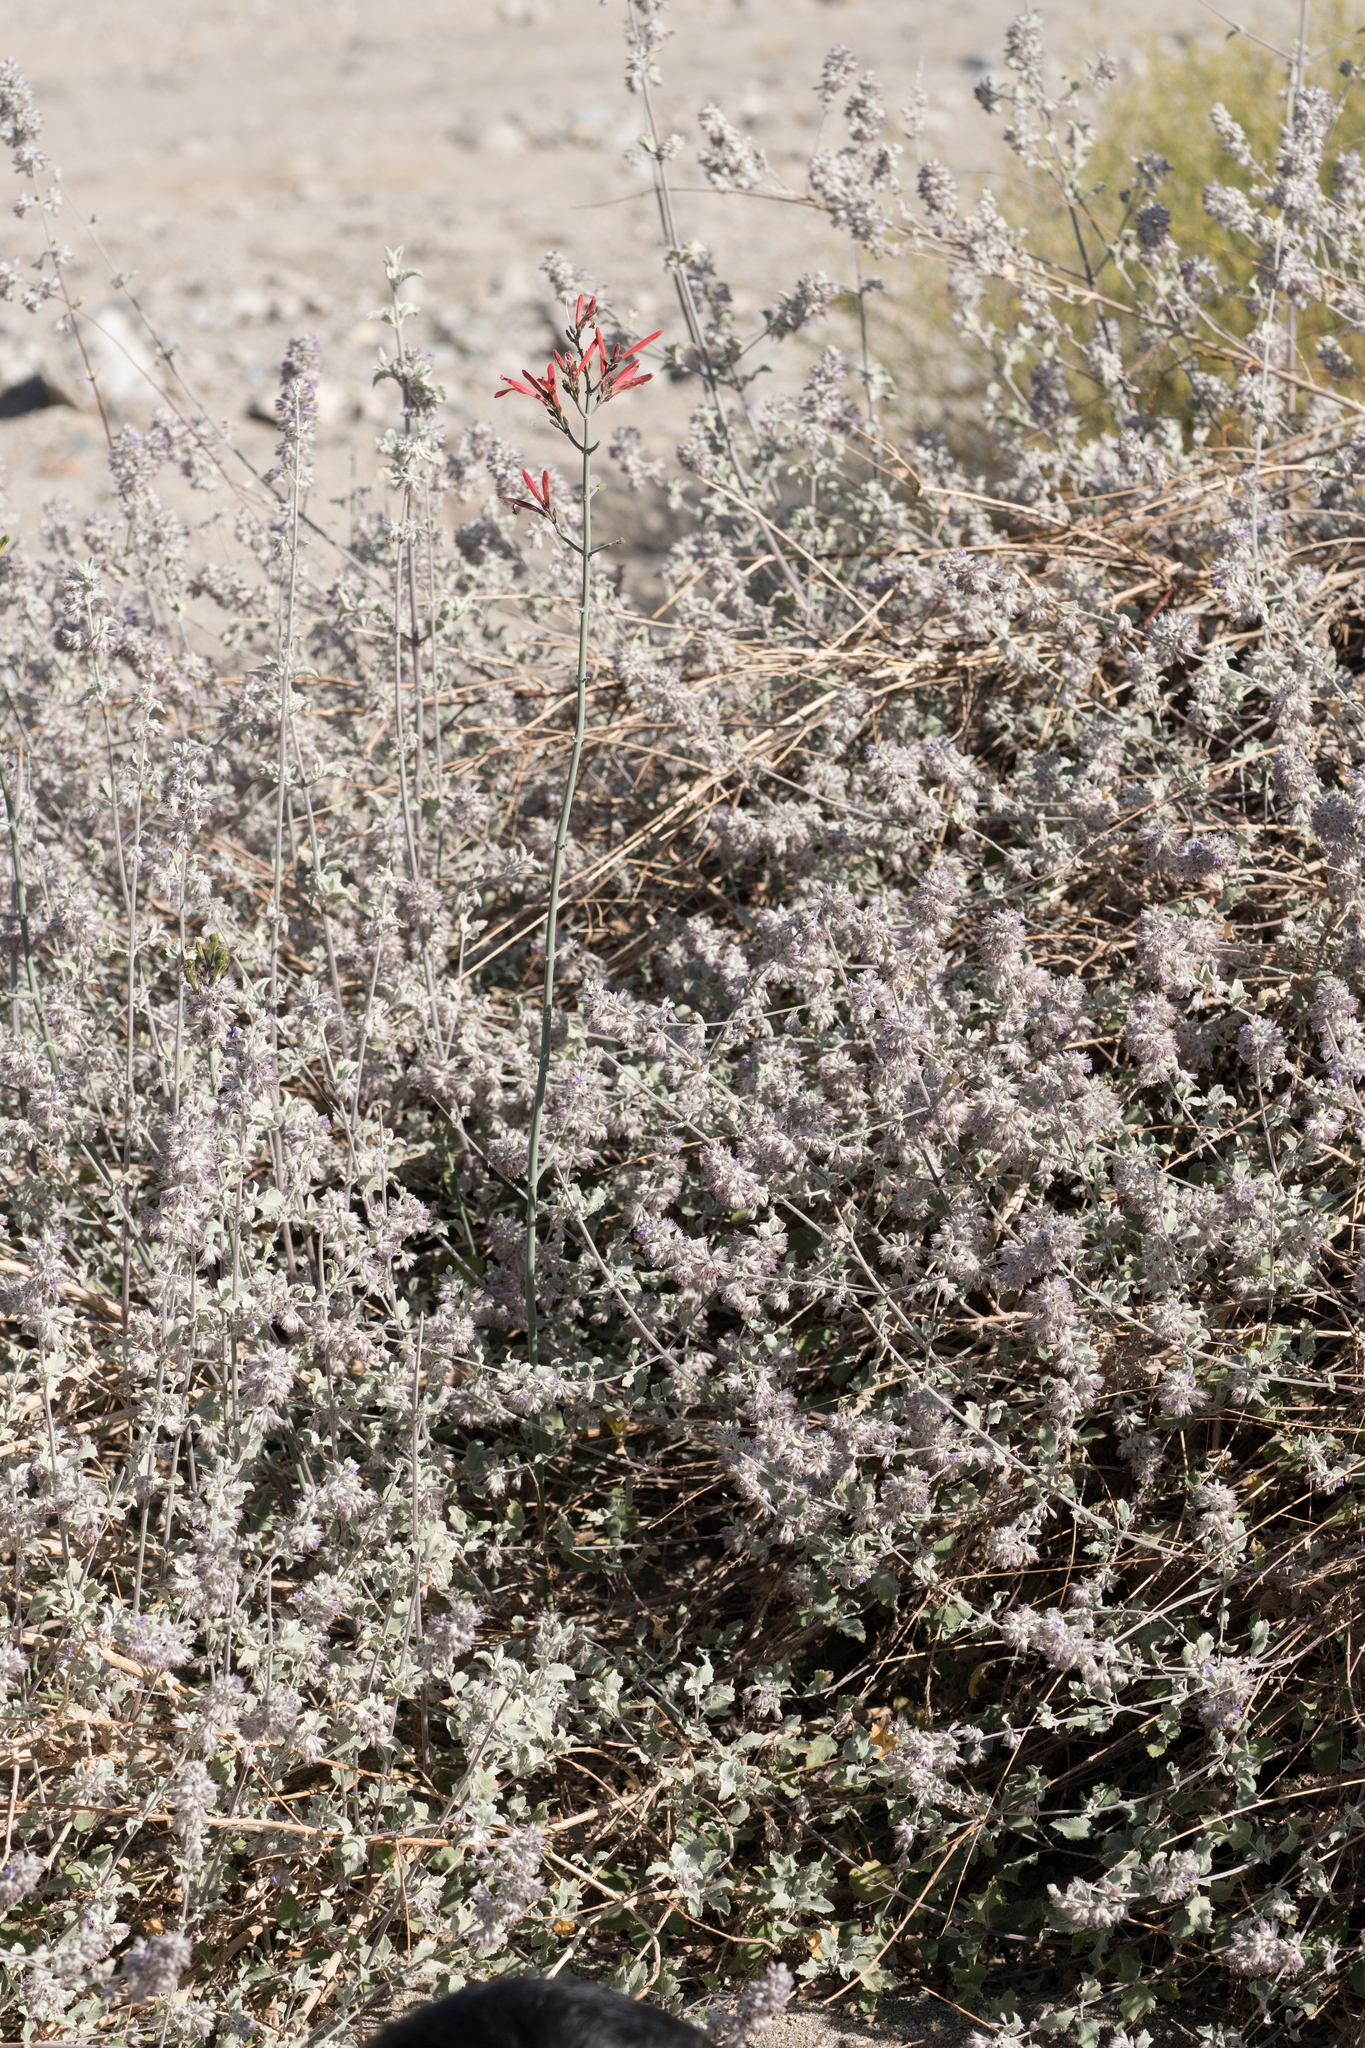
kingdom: Plantae
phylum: Tracheophyta
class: Magnoliopsida
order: Lamiales
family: Acanthaceae
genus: Justicia
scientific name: Justicia californica
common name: Chuparosa-honeysuckle
